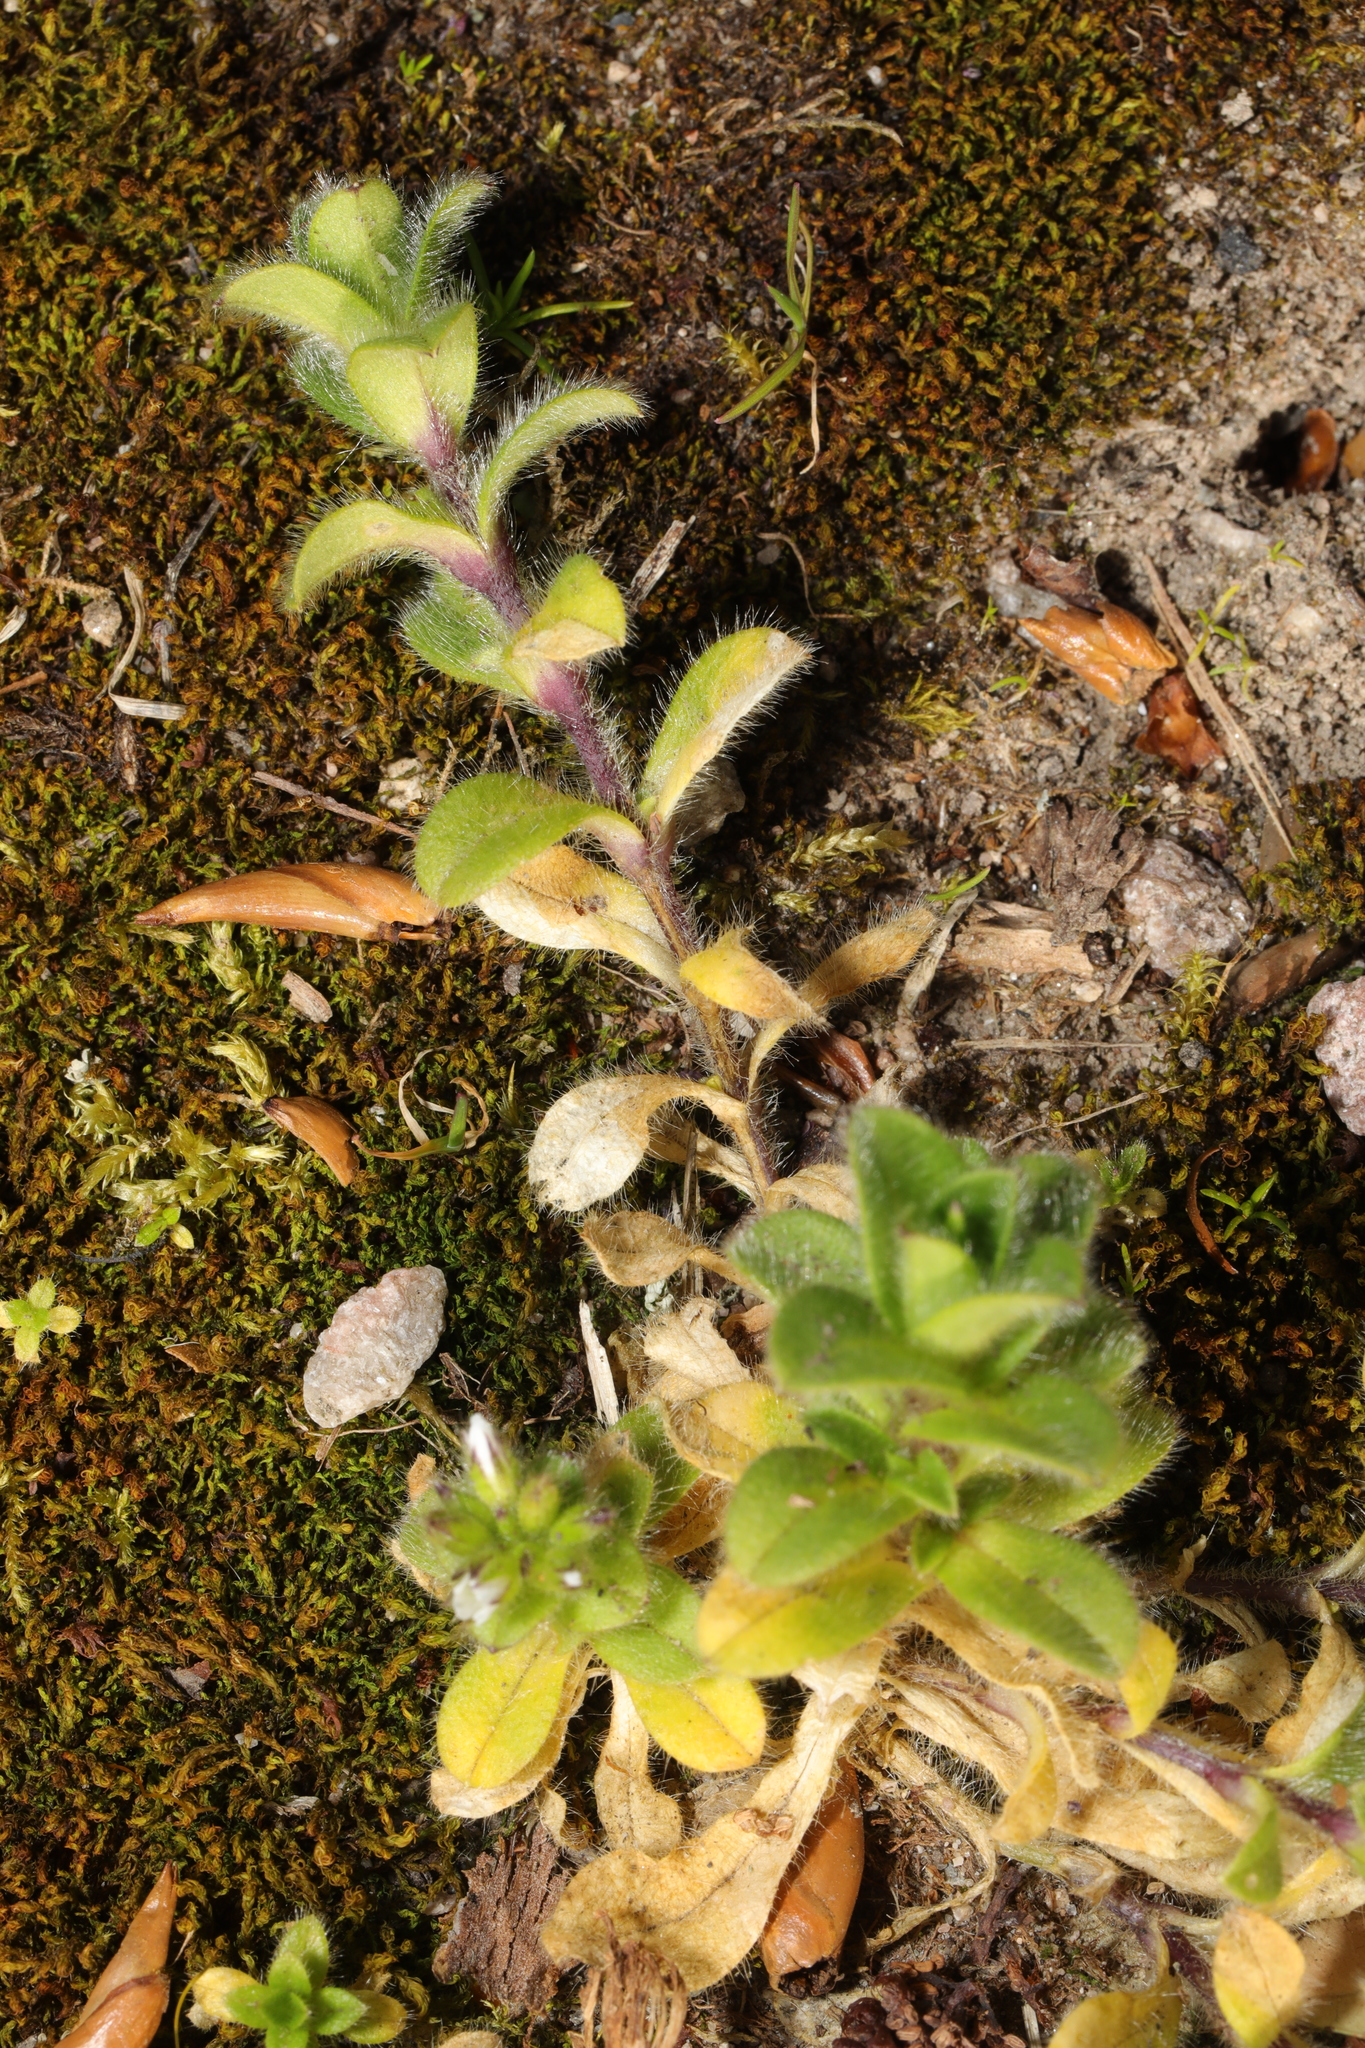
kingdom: Plantae
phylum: Tracheophyta
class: Magnoliopsida
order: Caryophyllales
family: Caryophyllaceae
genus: Cerastium
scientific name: Cerastium glomeratum
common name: Sticky chickweed
